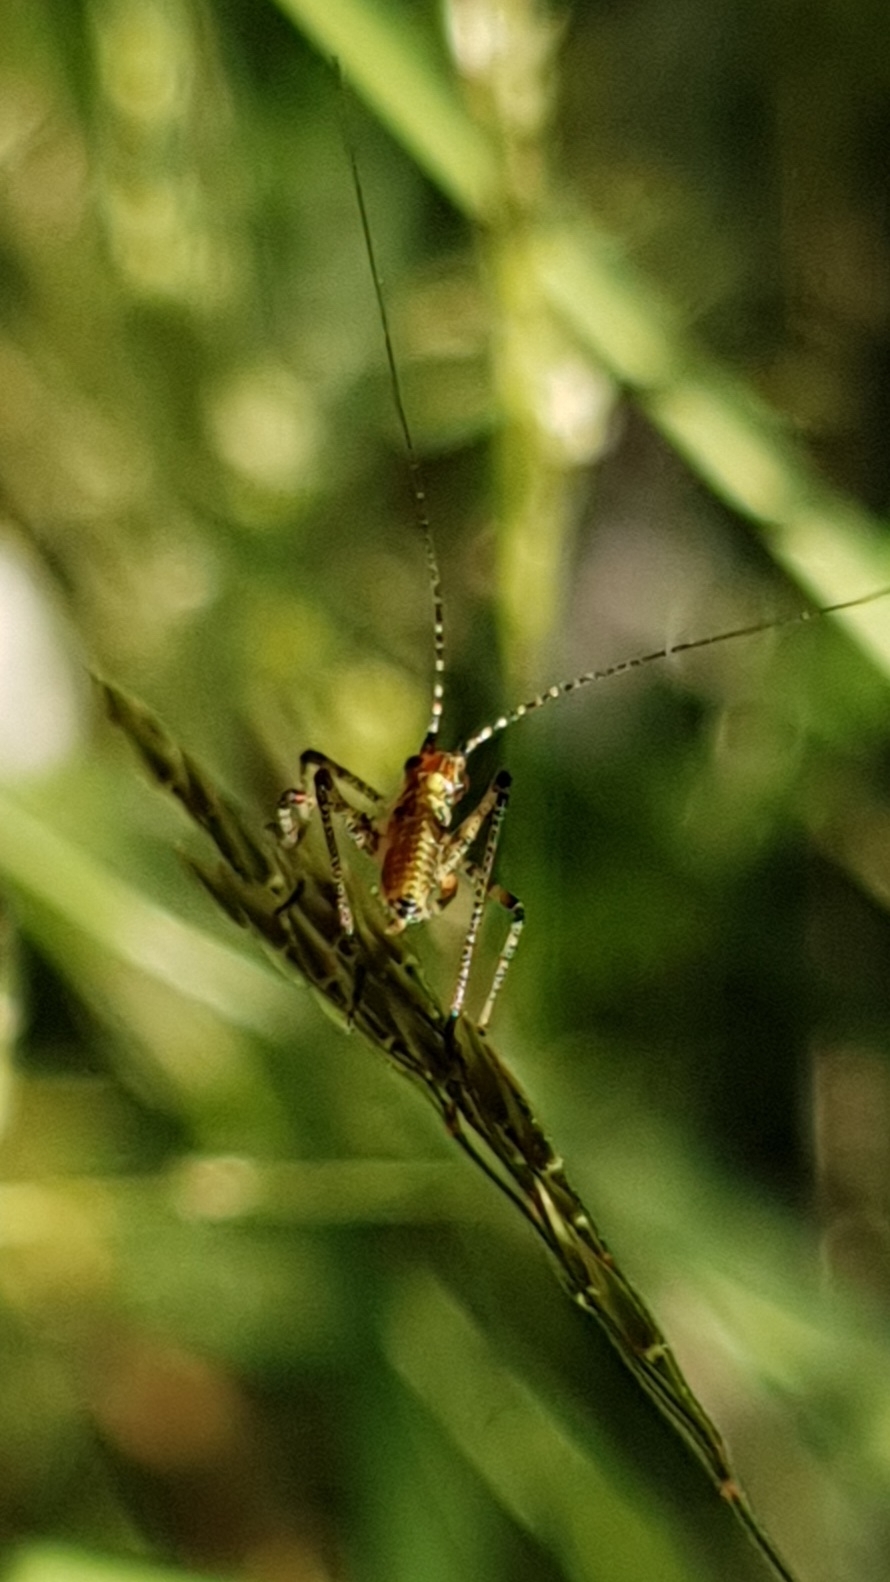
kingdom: Animalia
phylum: Arthropoda
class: Insecta
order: Orthoptera
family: Tettigoniidae
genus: Phaneroptera
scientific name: Phaneroptera nana
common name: Southern sickle bush-cricket
